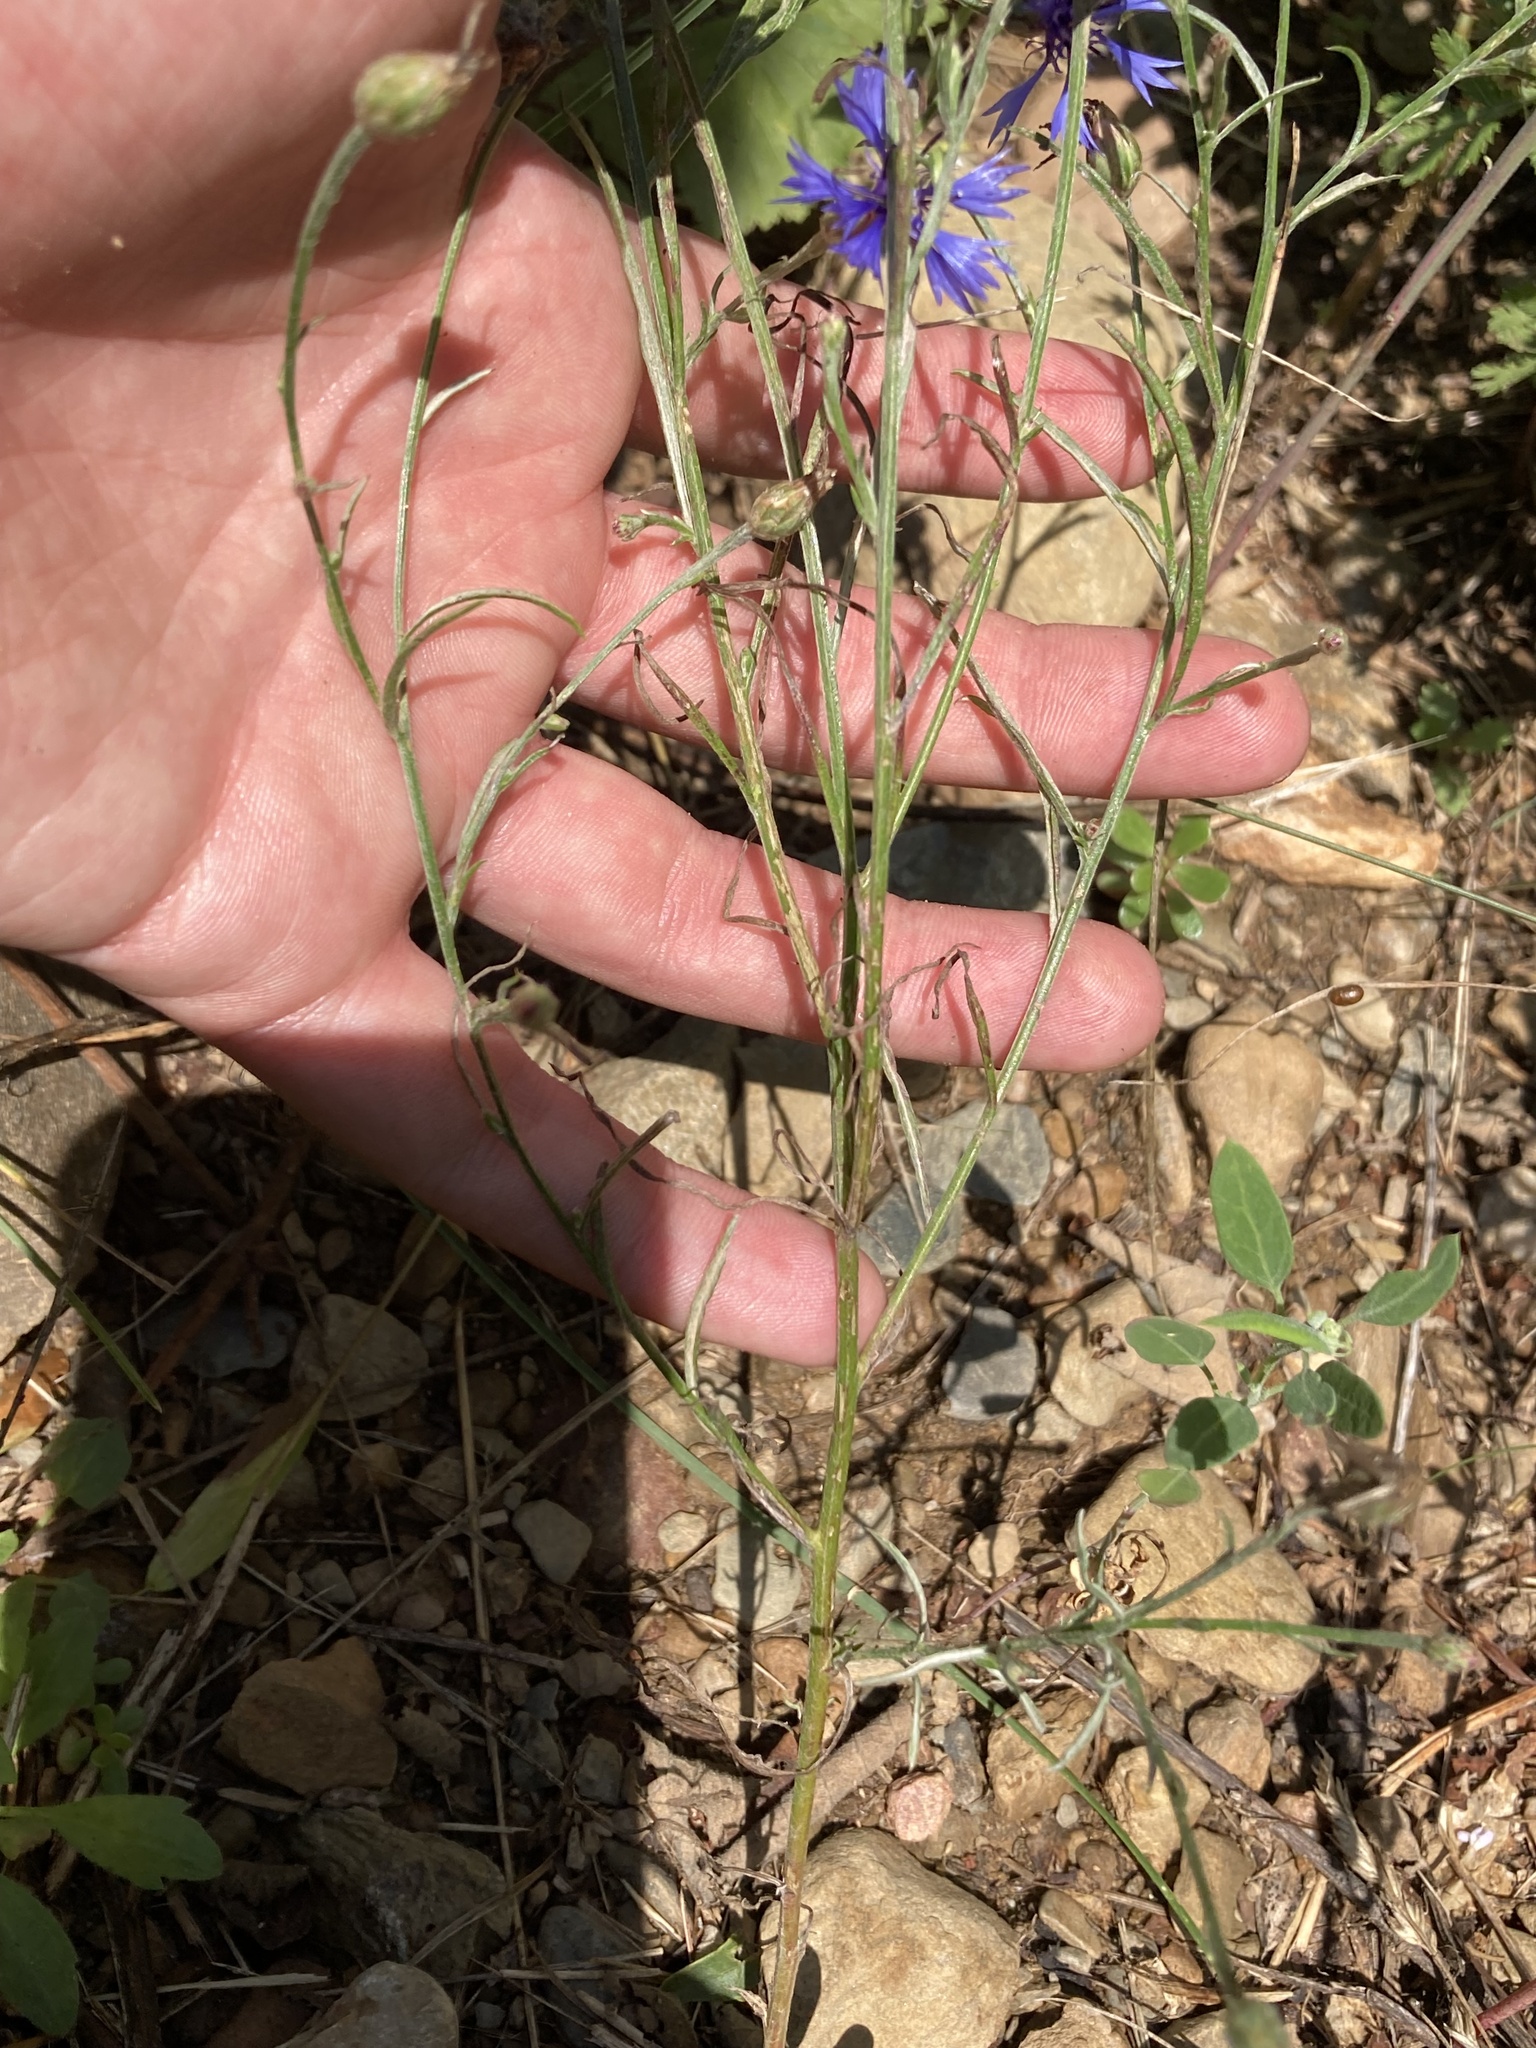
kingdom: Plantae
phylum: Tracheophyta
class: Magnoliopsida
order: Asterales
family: Asteraceae
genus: Centaurea
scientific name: Centaurea cyanus
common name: Cornflower
